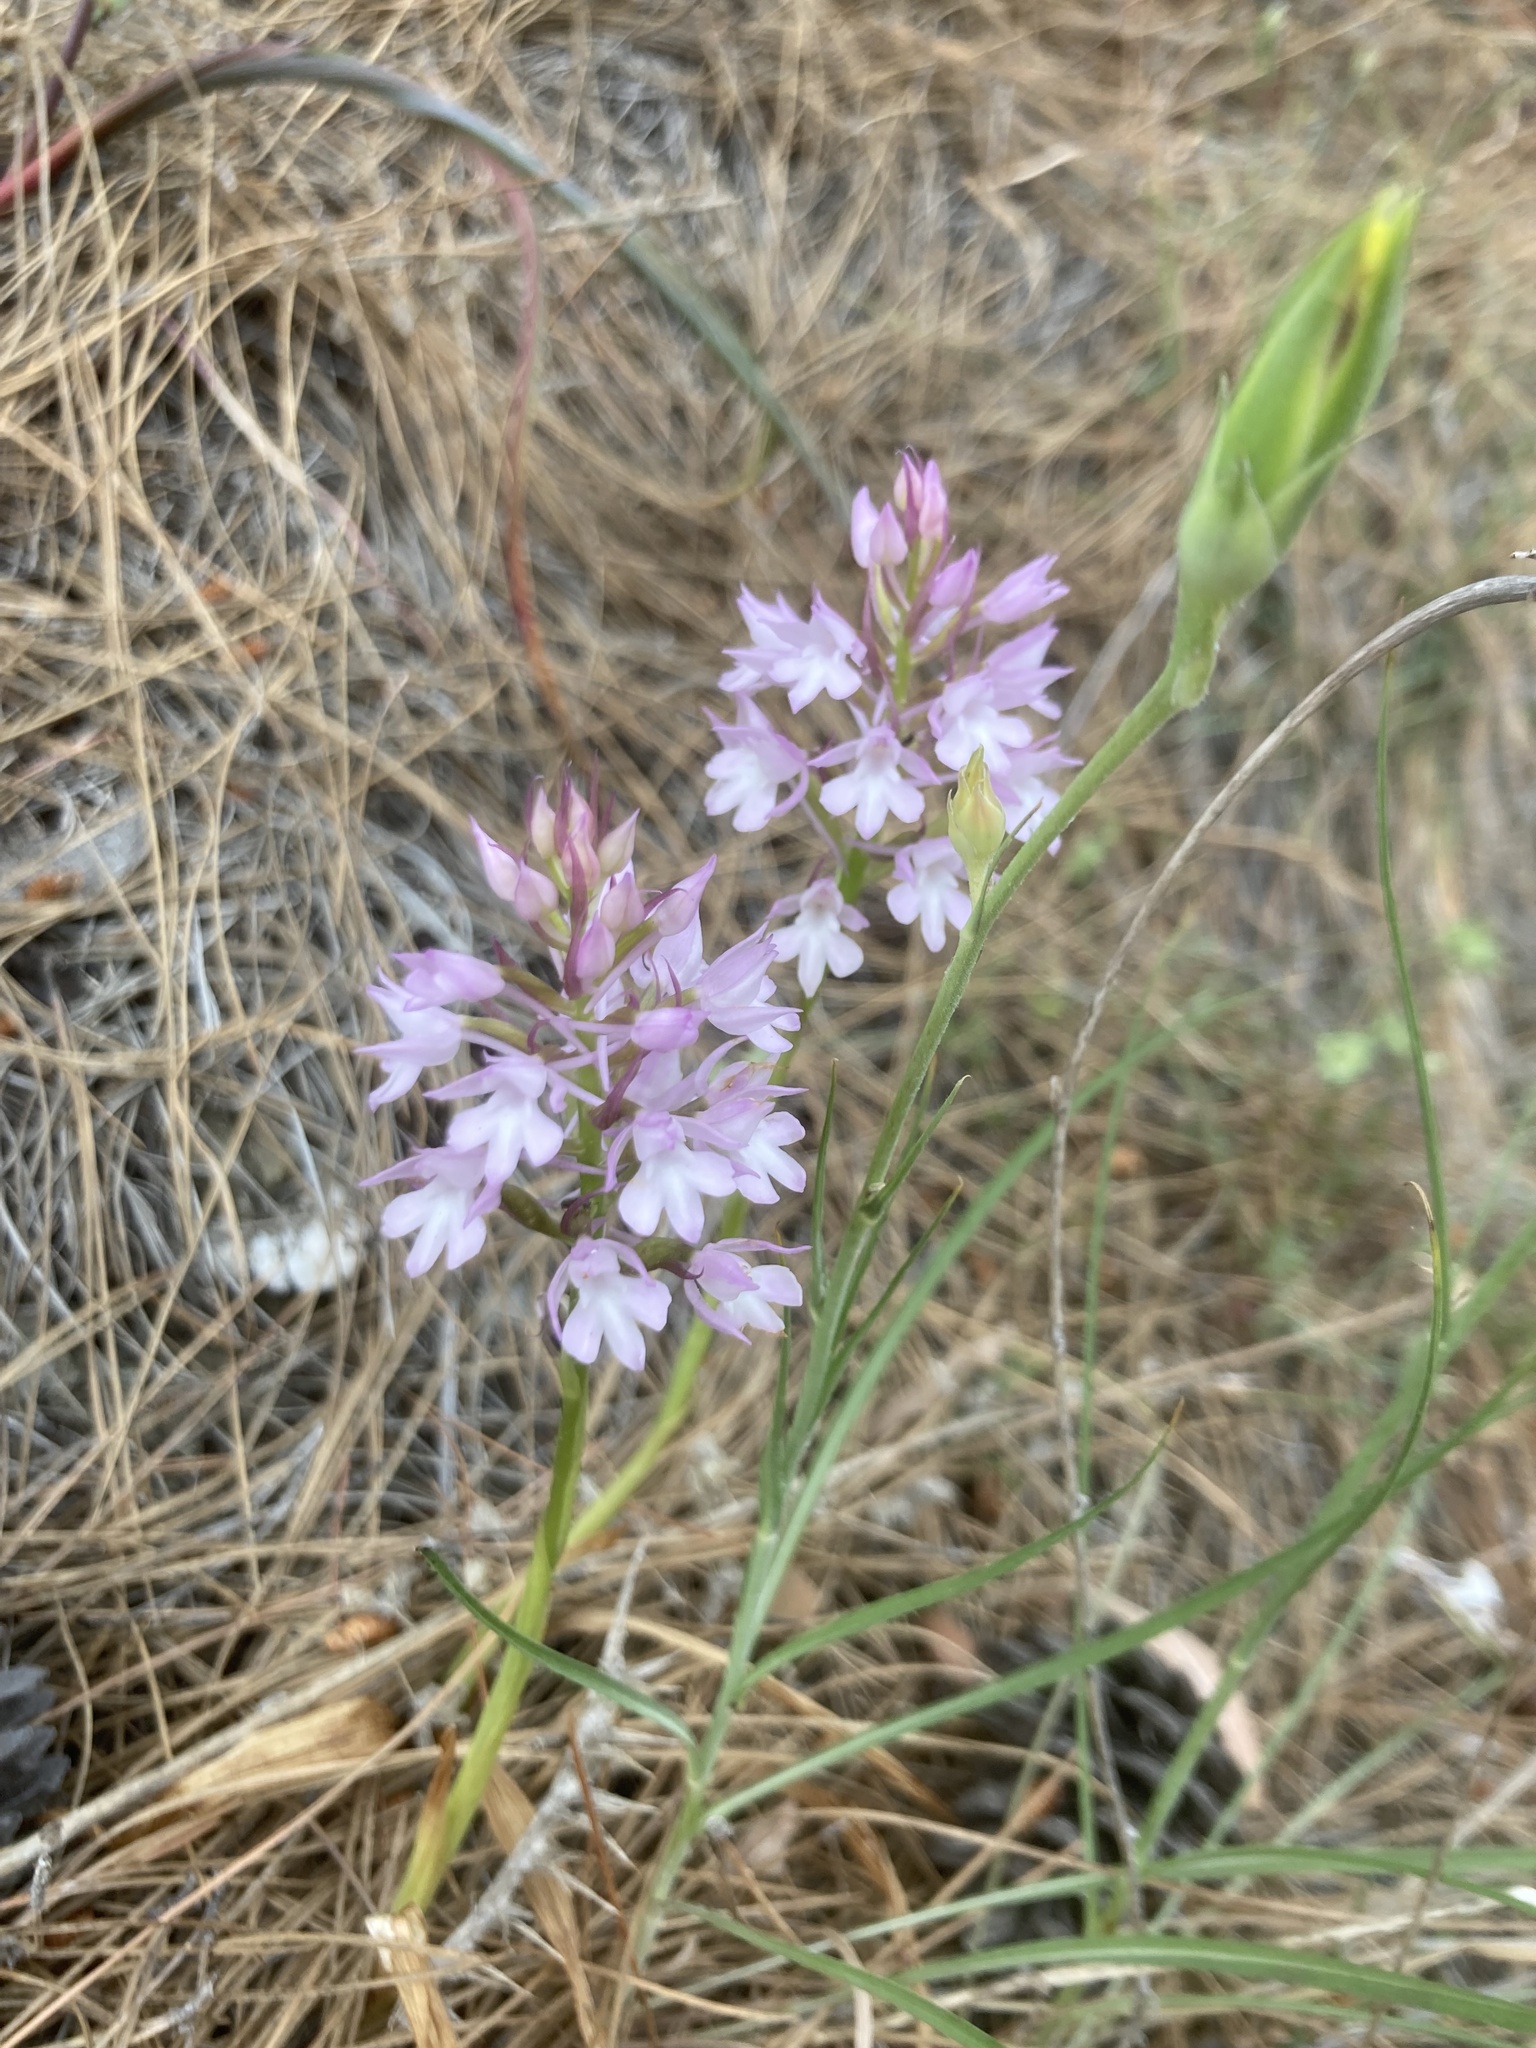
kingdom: Plantae
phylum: Tracheophyta
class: Liliopsida
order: Asparagales
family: Orchidaceae
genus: Anacamptis
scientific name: Anacamptis pyramidalis
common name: Pyramidal orchid
